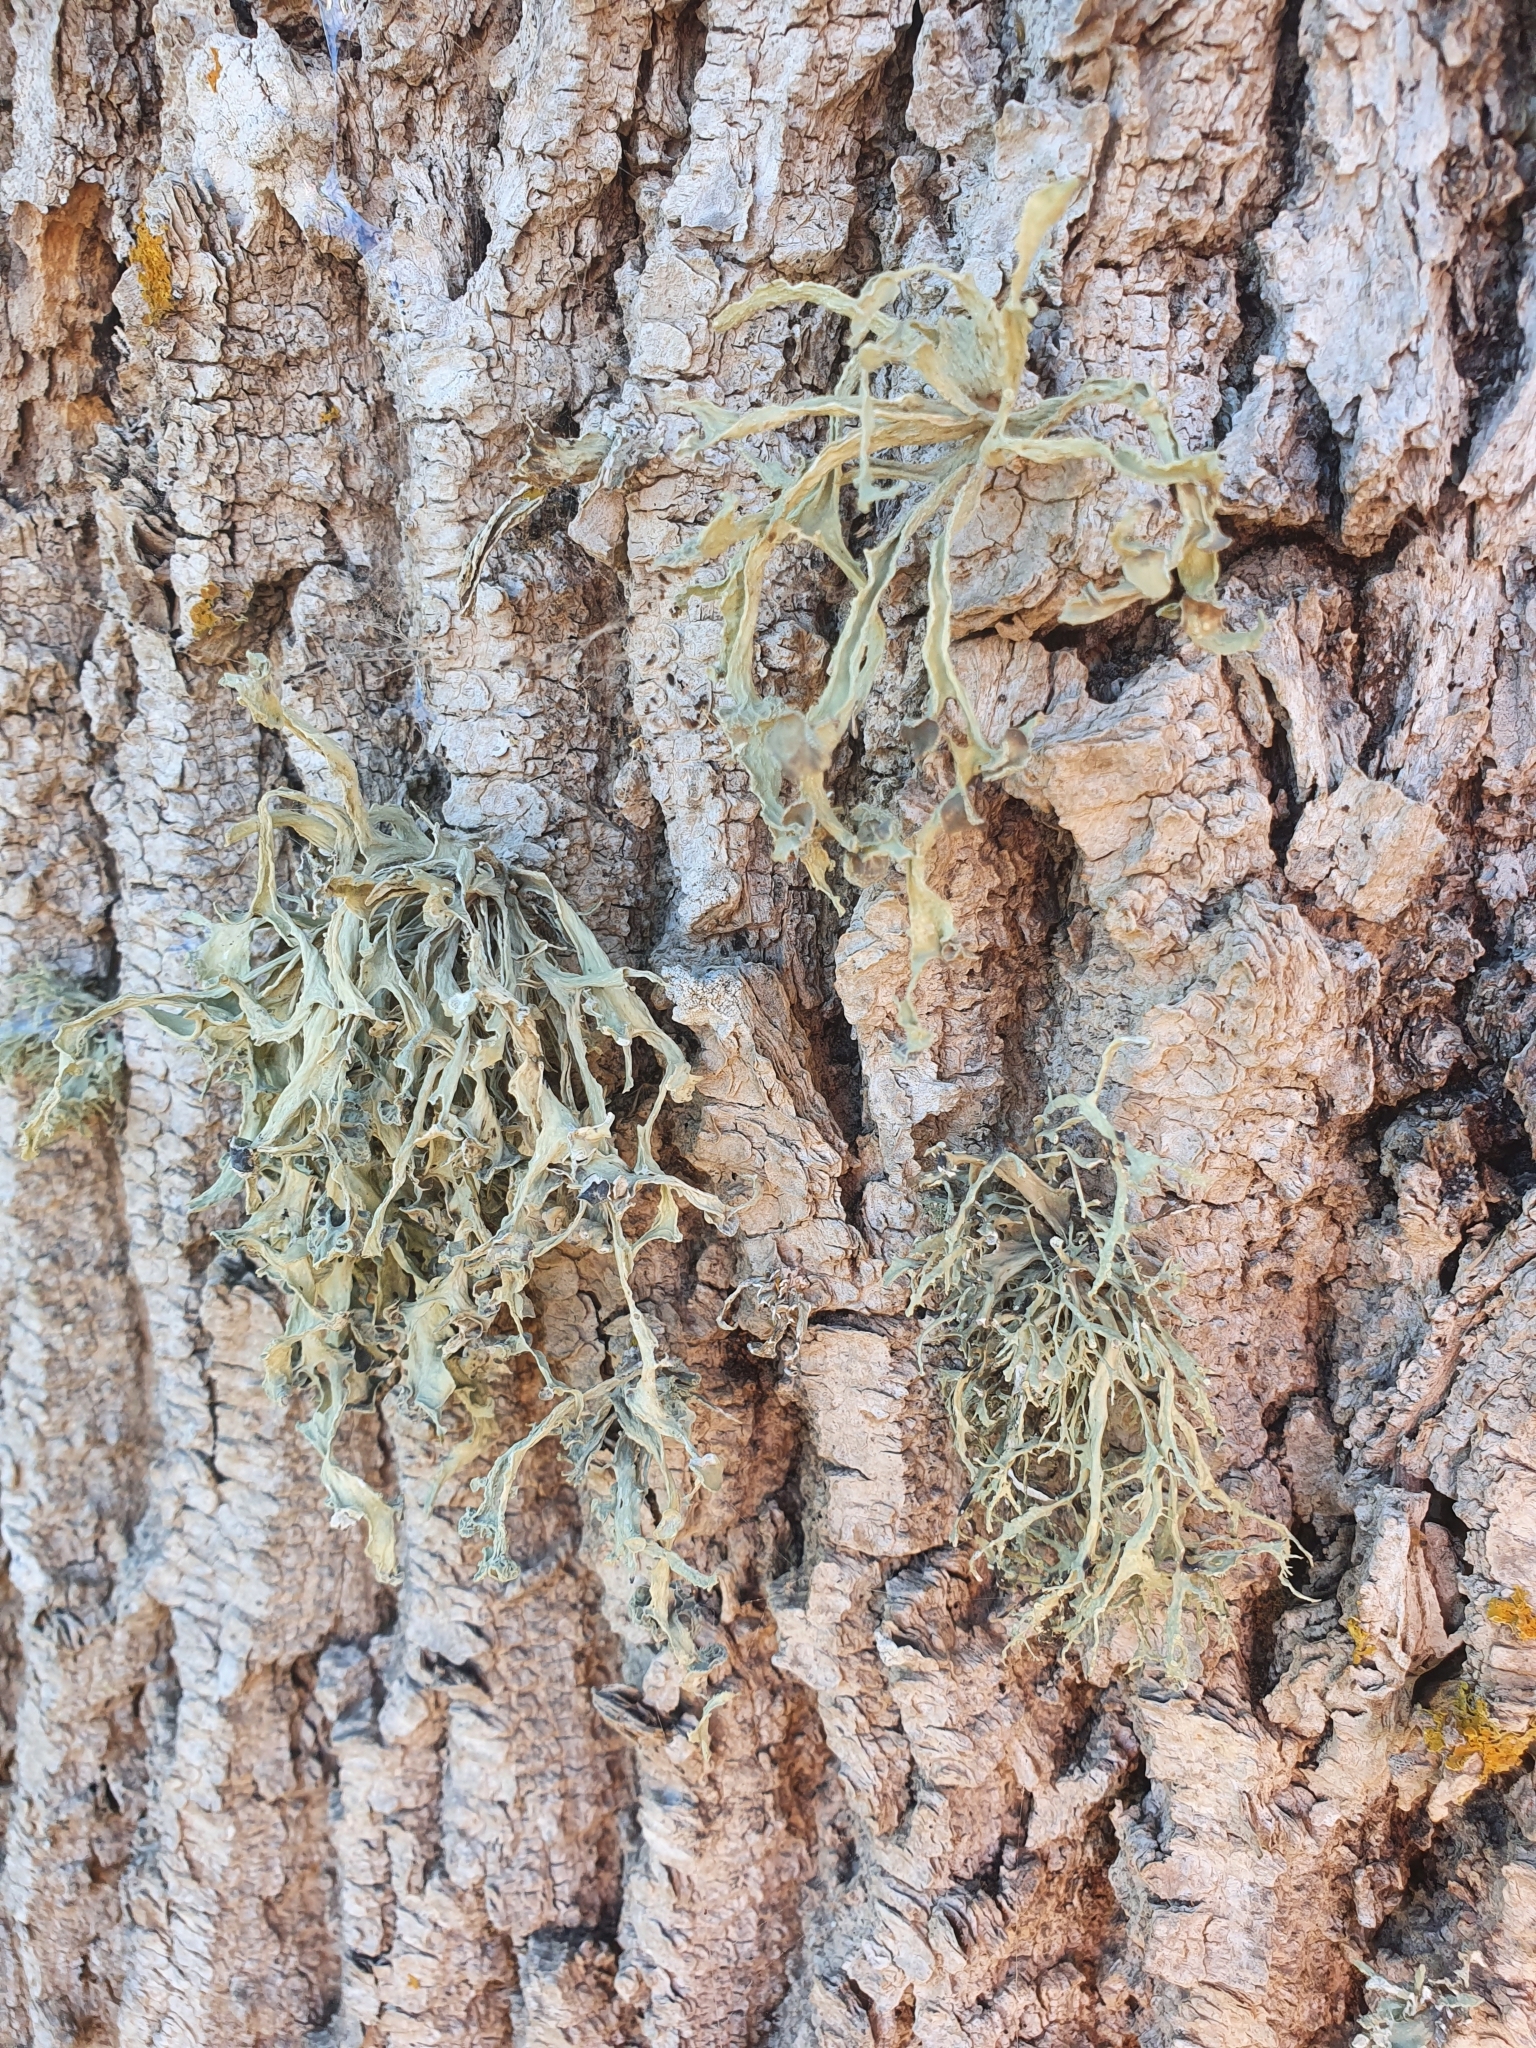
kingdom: Fungi
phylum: Ascomycota
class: Lecanoromycetes
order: Lecanorales
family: Ramalinaceae
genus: Ramalina
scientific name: Ramalina fraxinea
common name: Cartilage lichen
